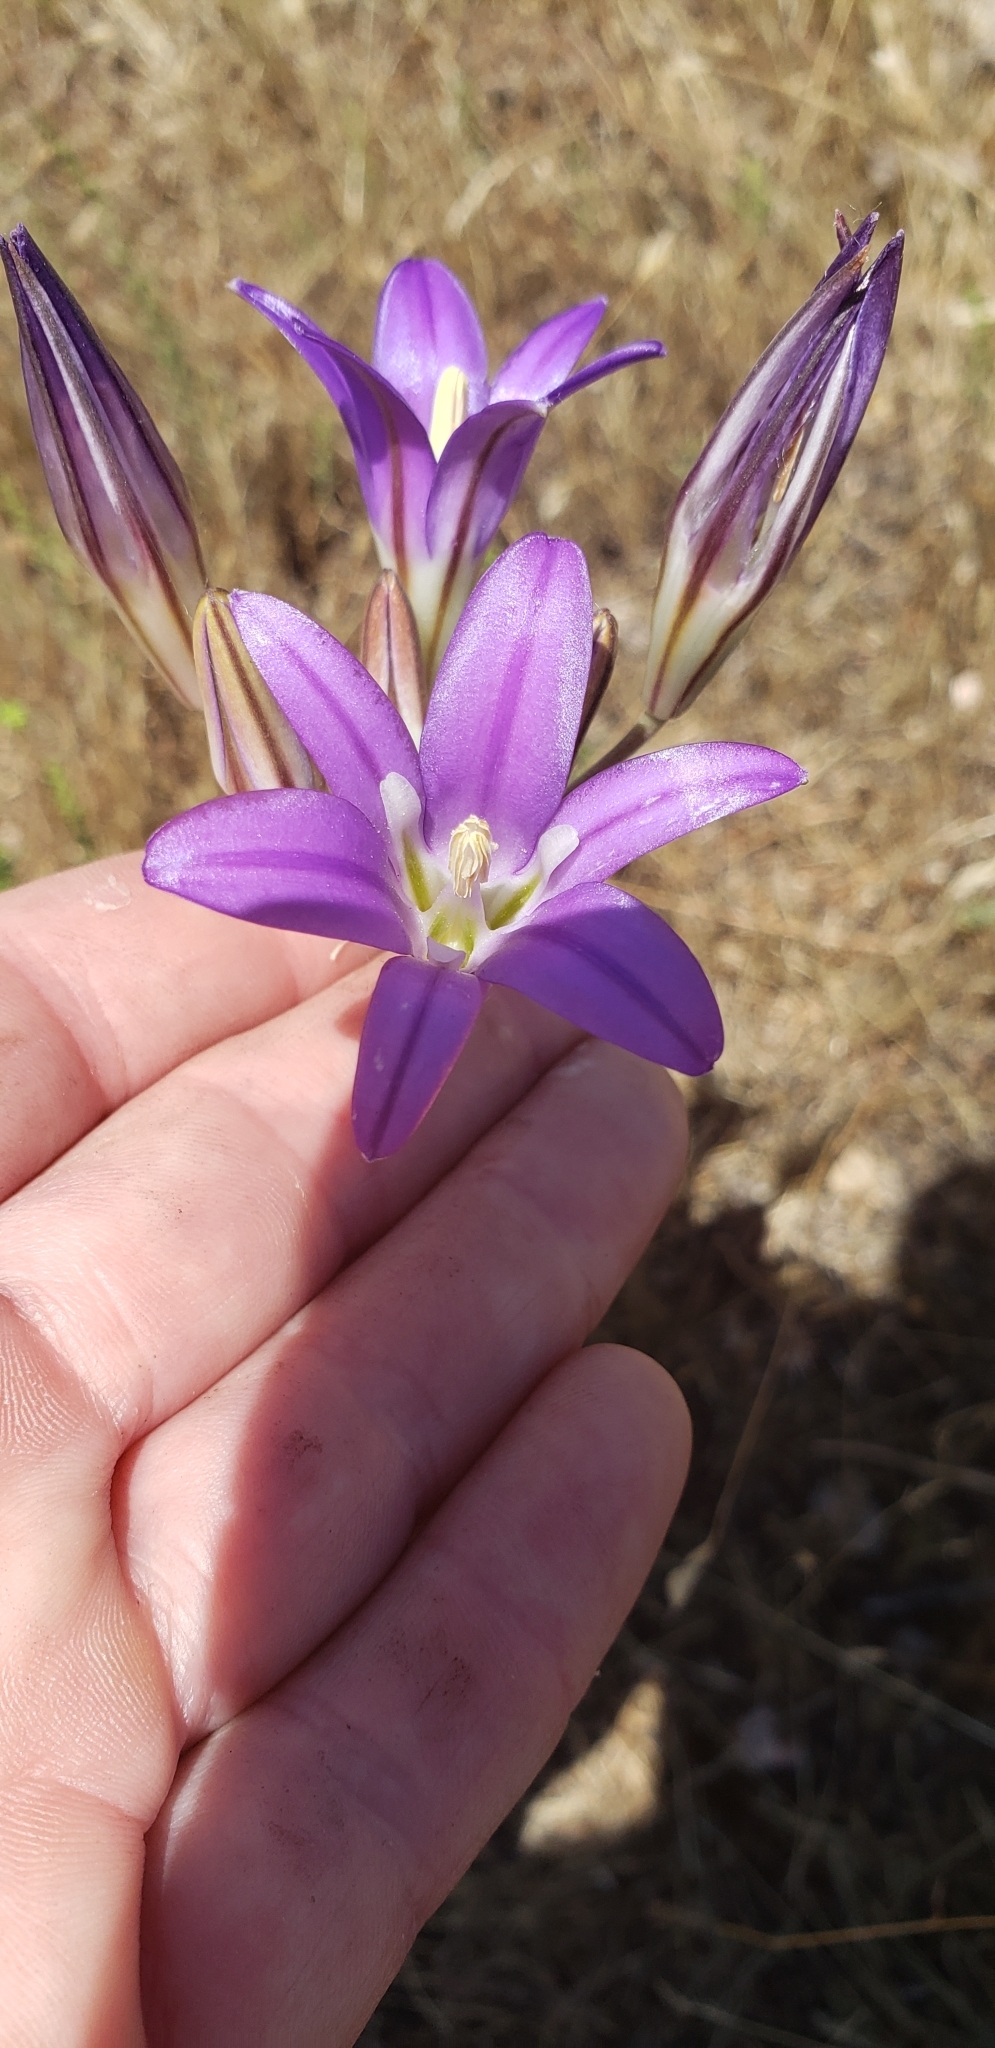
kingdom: Plantae
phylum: Tracheophyta
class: Liliopsida
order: Asparagales
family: Asparagaceae
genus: Brodiaea
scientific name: Brodiaea elegans
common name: Elegant cluster-lily
